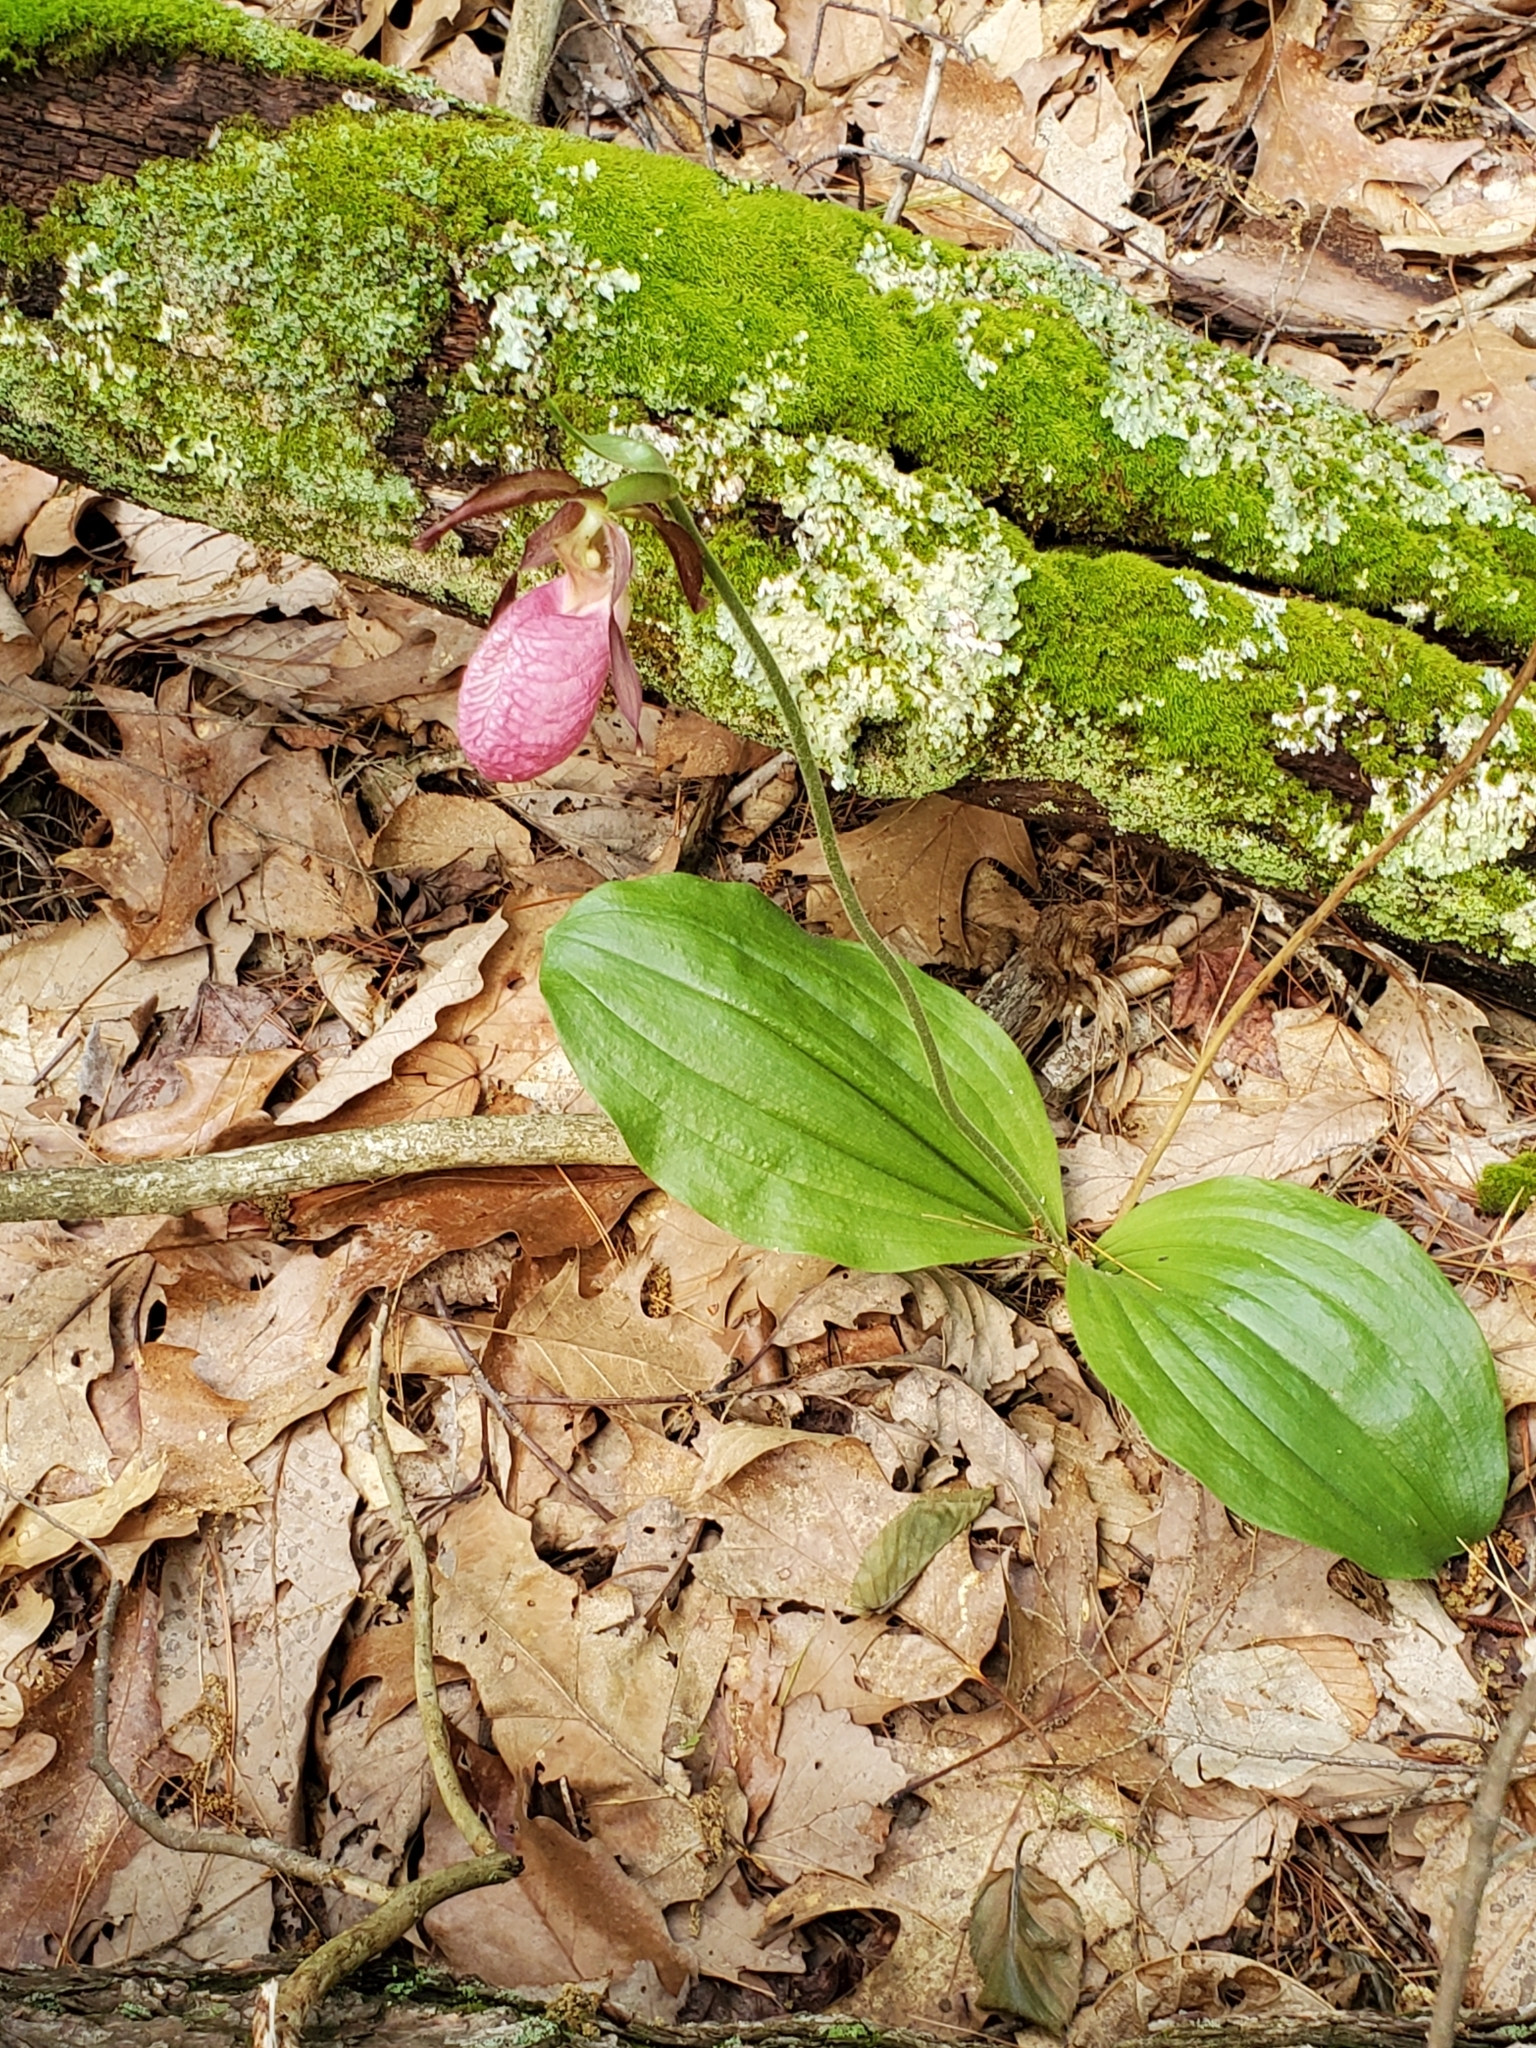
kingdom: Plantae
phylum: Tracheophyta
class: Liliopsida
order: Asparagales
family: Orchidaceae
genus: Cypripedium
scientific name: Cypripedium acaule
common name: Pink lady's-slipper
